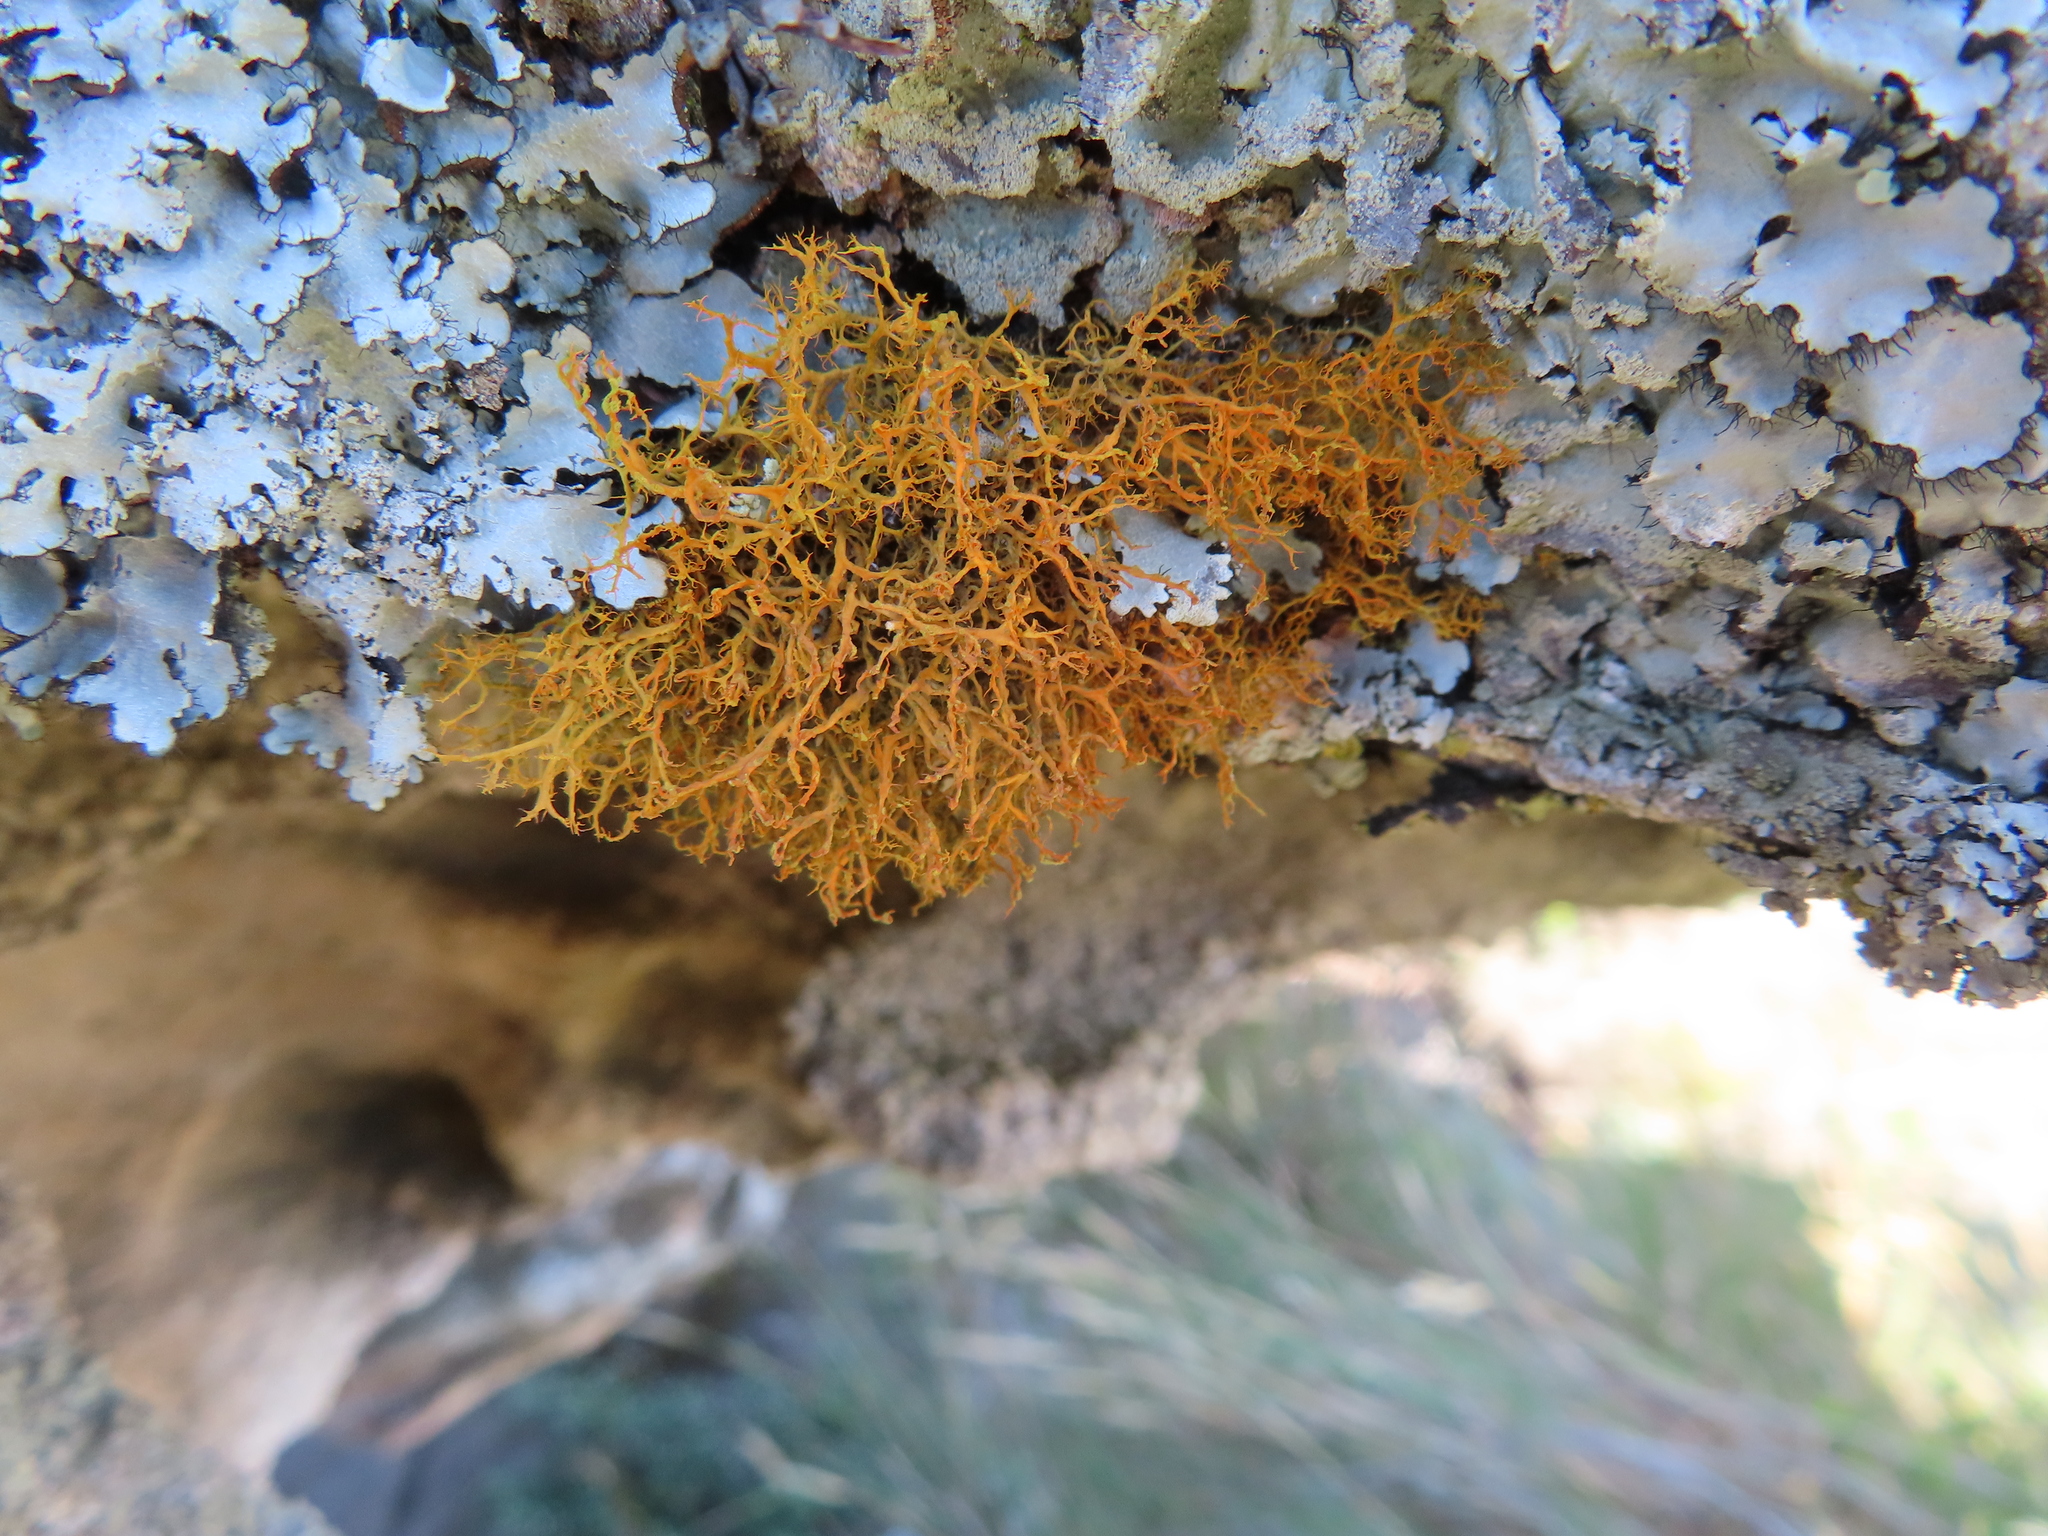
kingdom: Fungi
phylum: Ascomycota
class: Lecanoromycetes
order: Teloschistales
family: Teloschistaceae
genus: Teloschistes
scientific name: Teloschistes flavicans
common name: Golden hair-lichen
